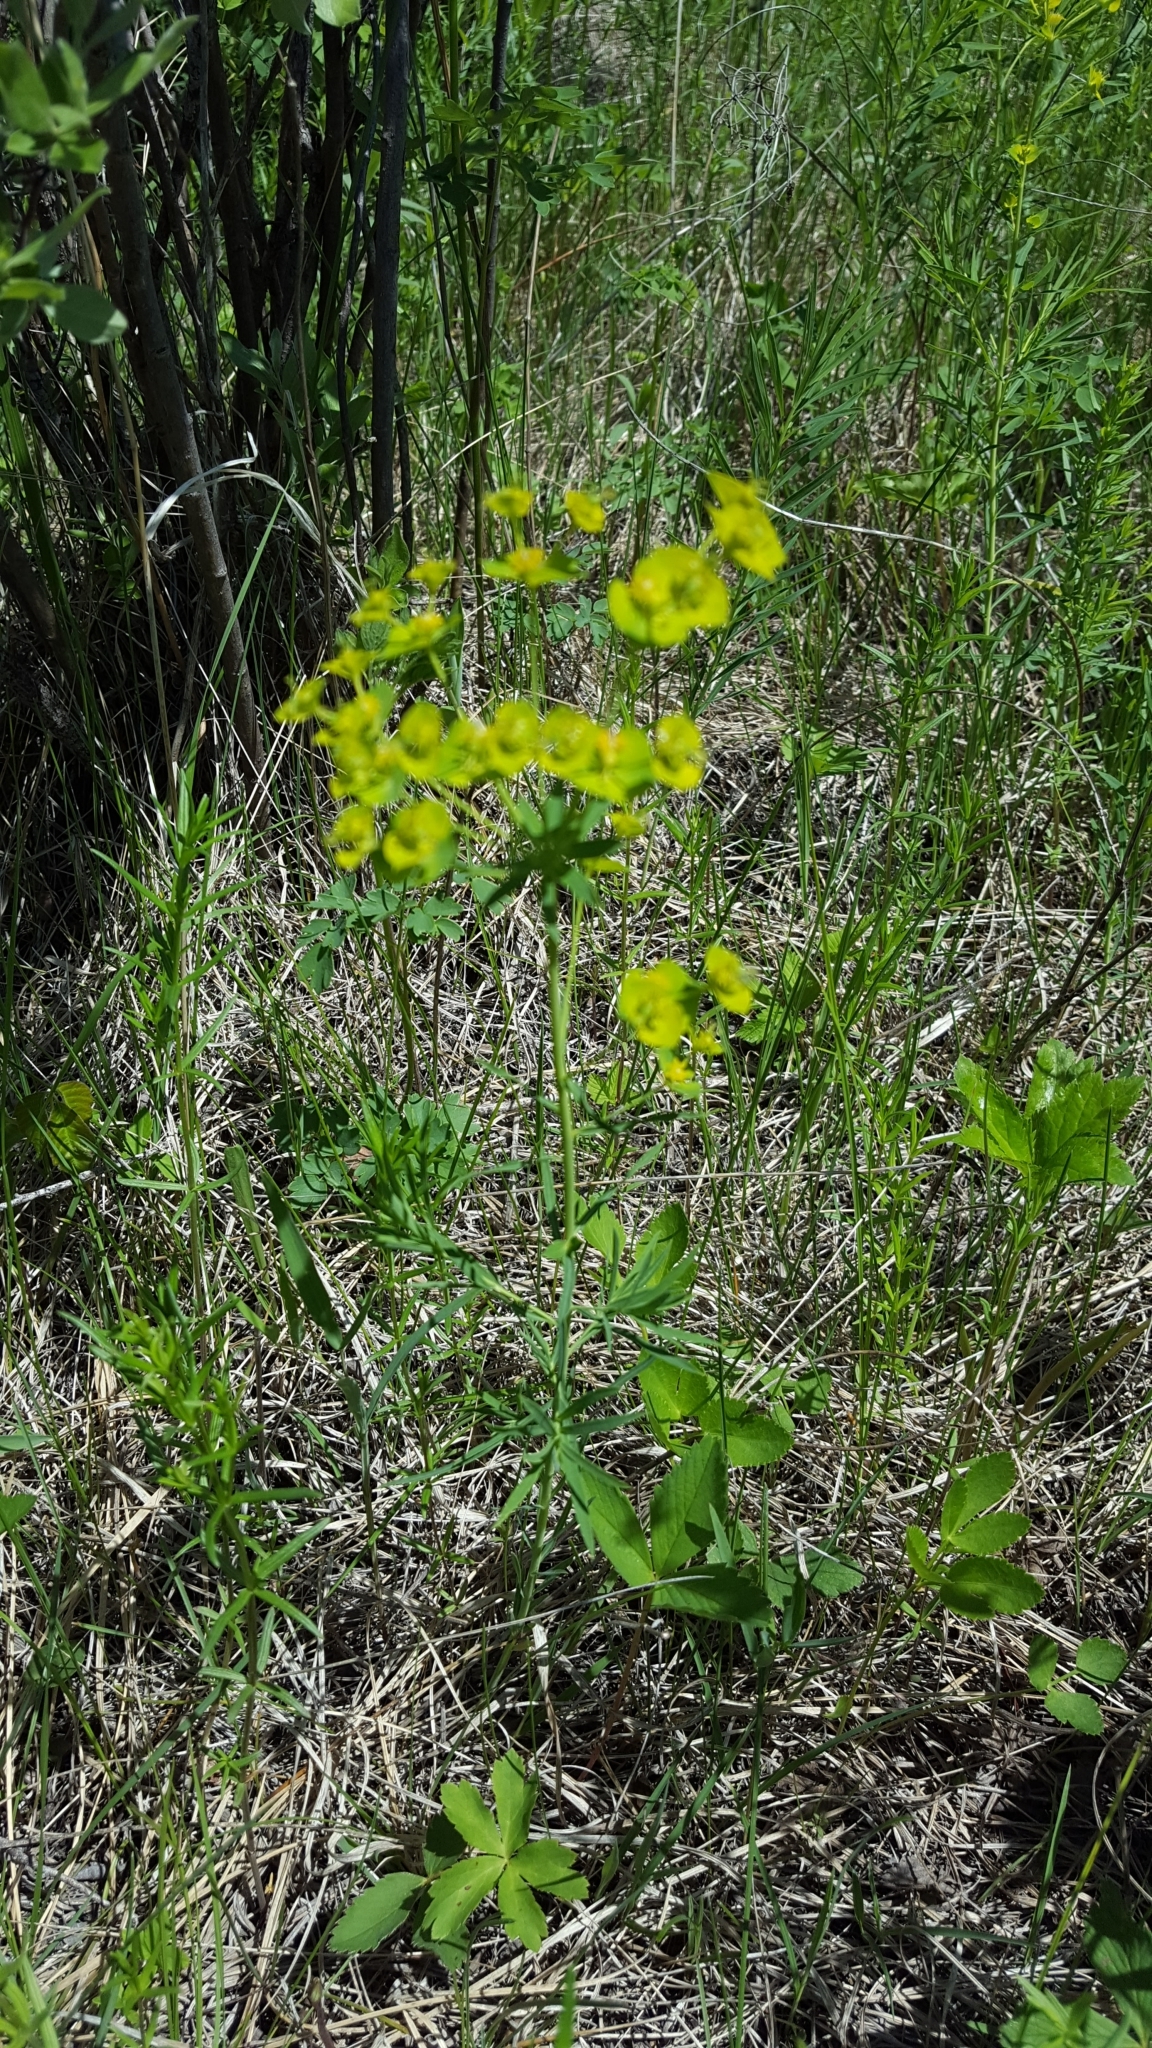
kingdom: Plantae
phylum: Tracheophyta
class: Magnoliopsida
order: Malpighiales
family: Euphorbiaceae
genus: Euphorbia
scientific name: Euphorbia virgata
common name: Leafy spurge
